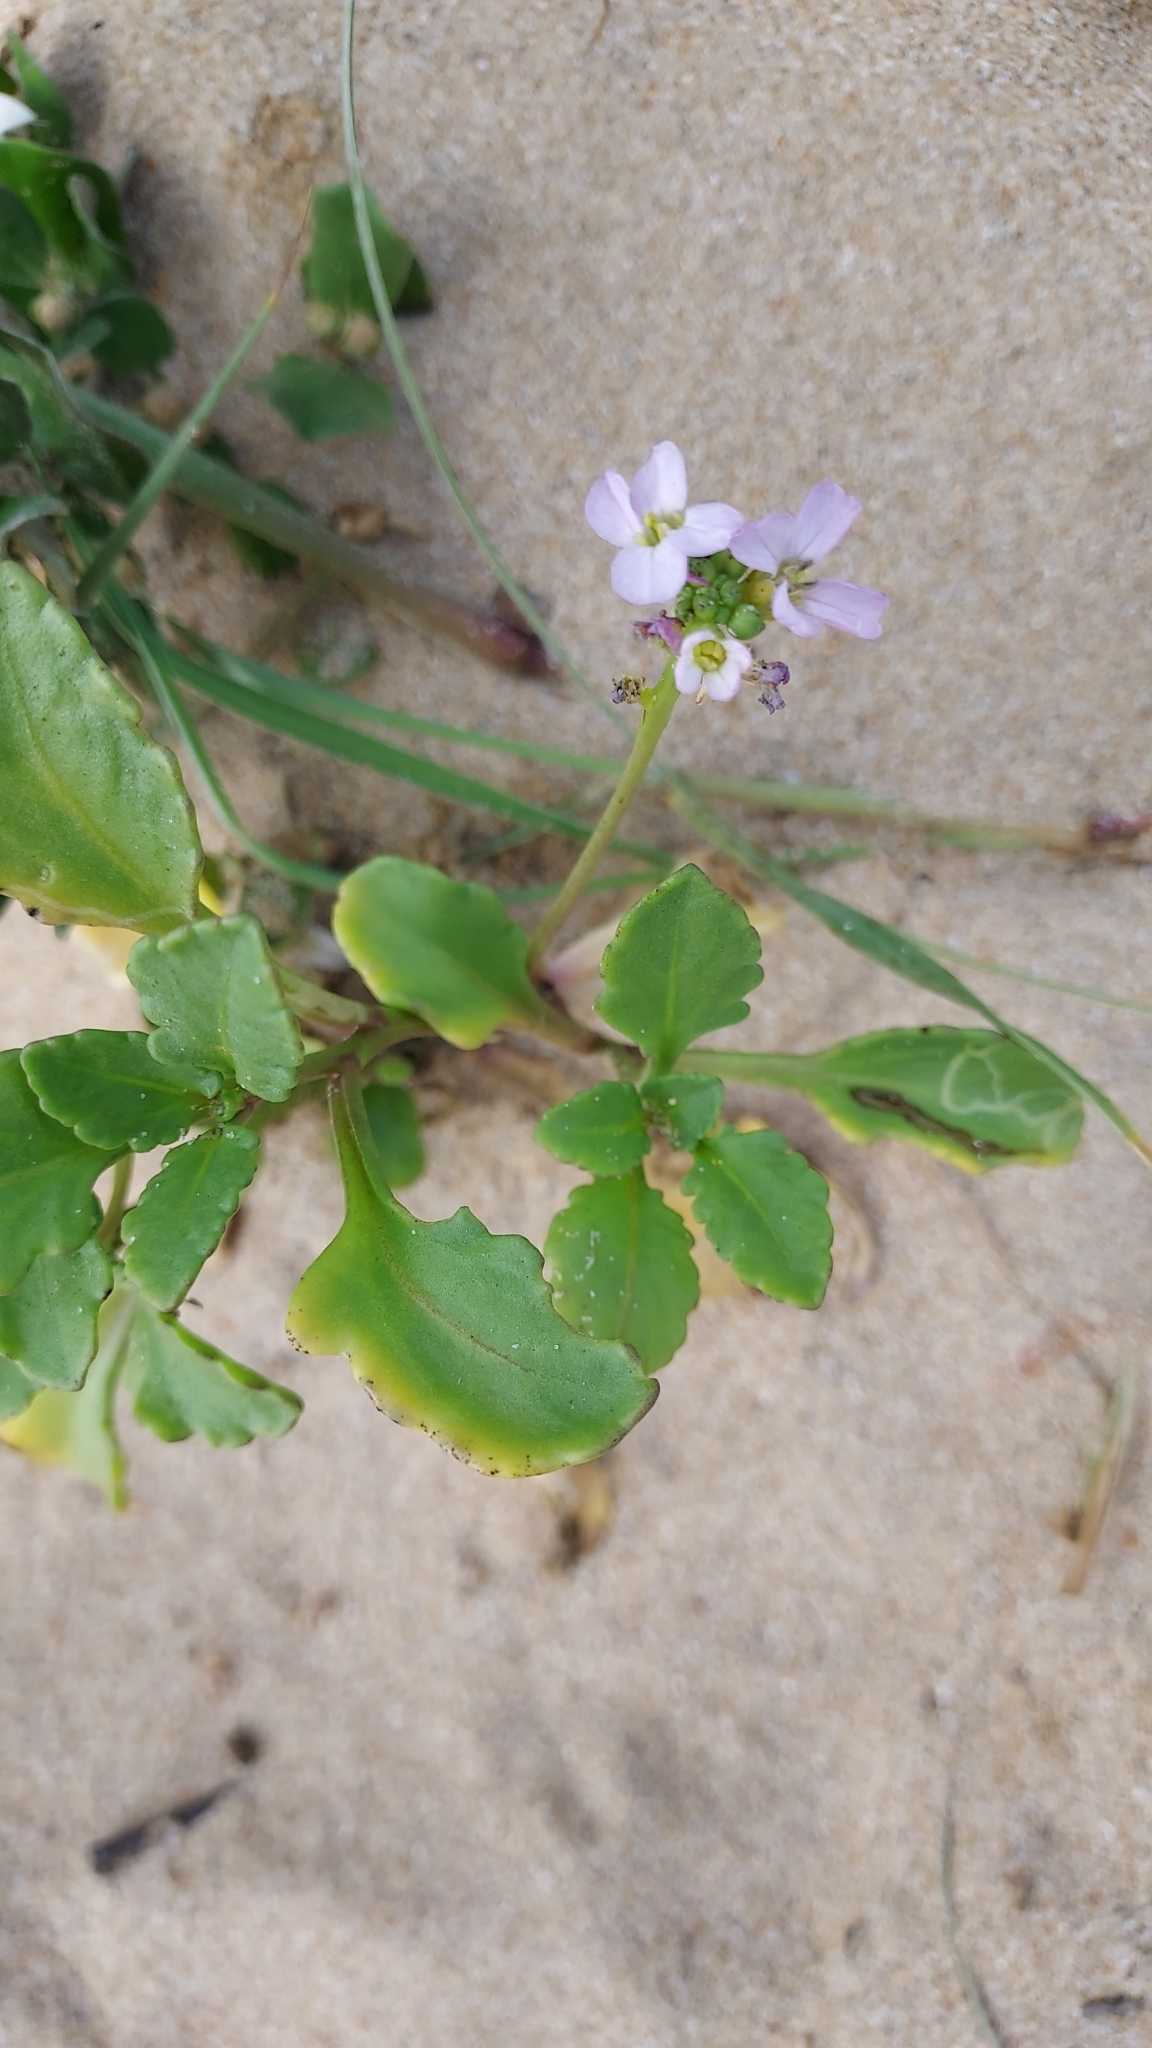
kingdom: Plantae
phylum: Tracheophyta
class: Magnoliopsida
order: Brassicales
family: Brassicaceae
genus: Cakile
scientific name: Cakile maritima
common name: Sea rocket
